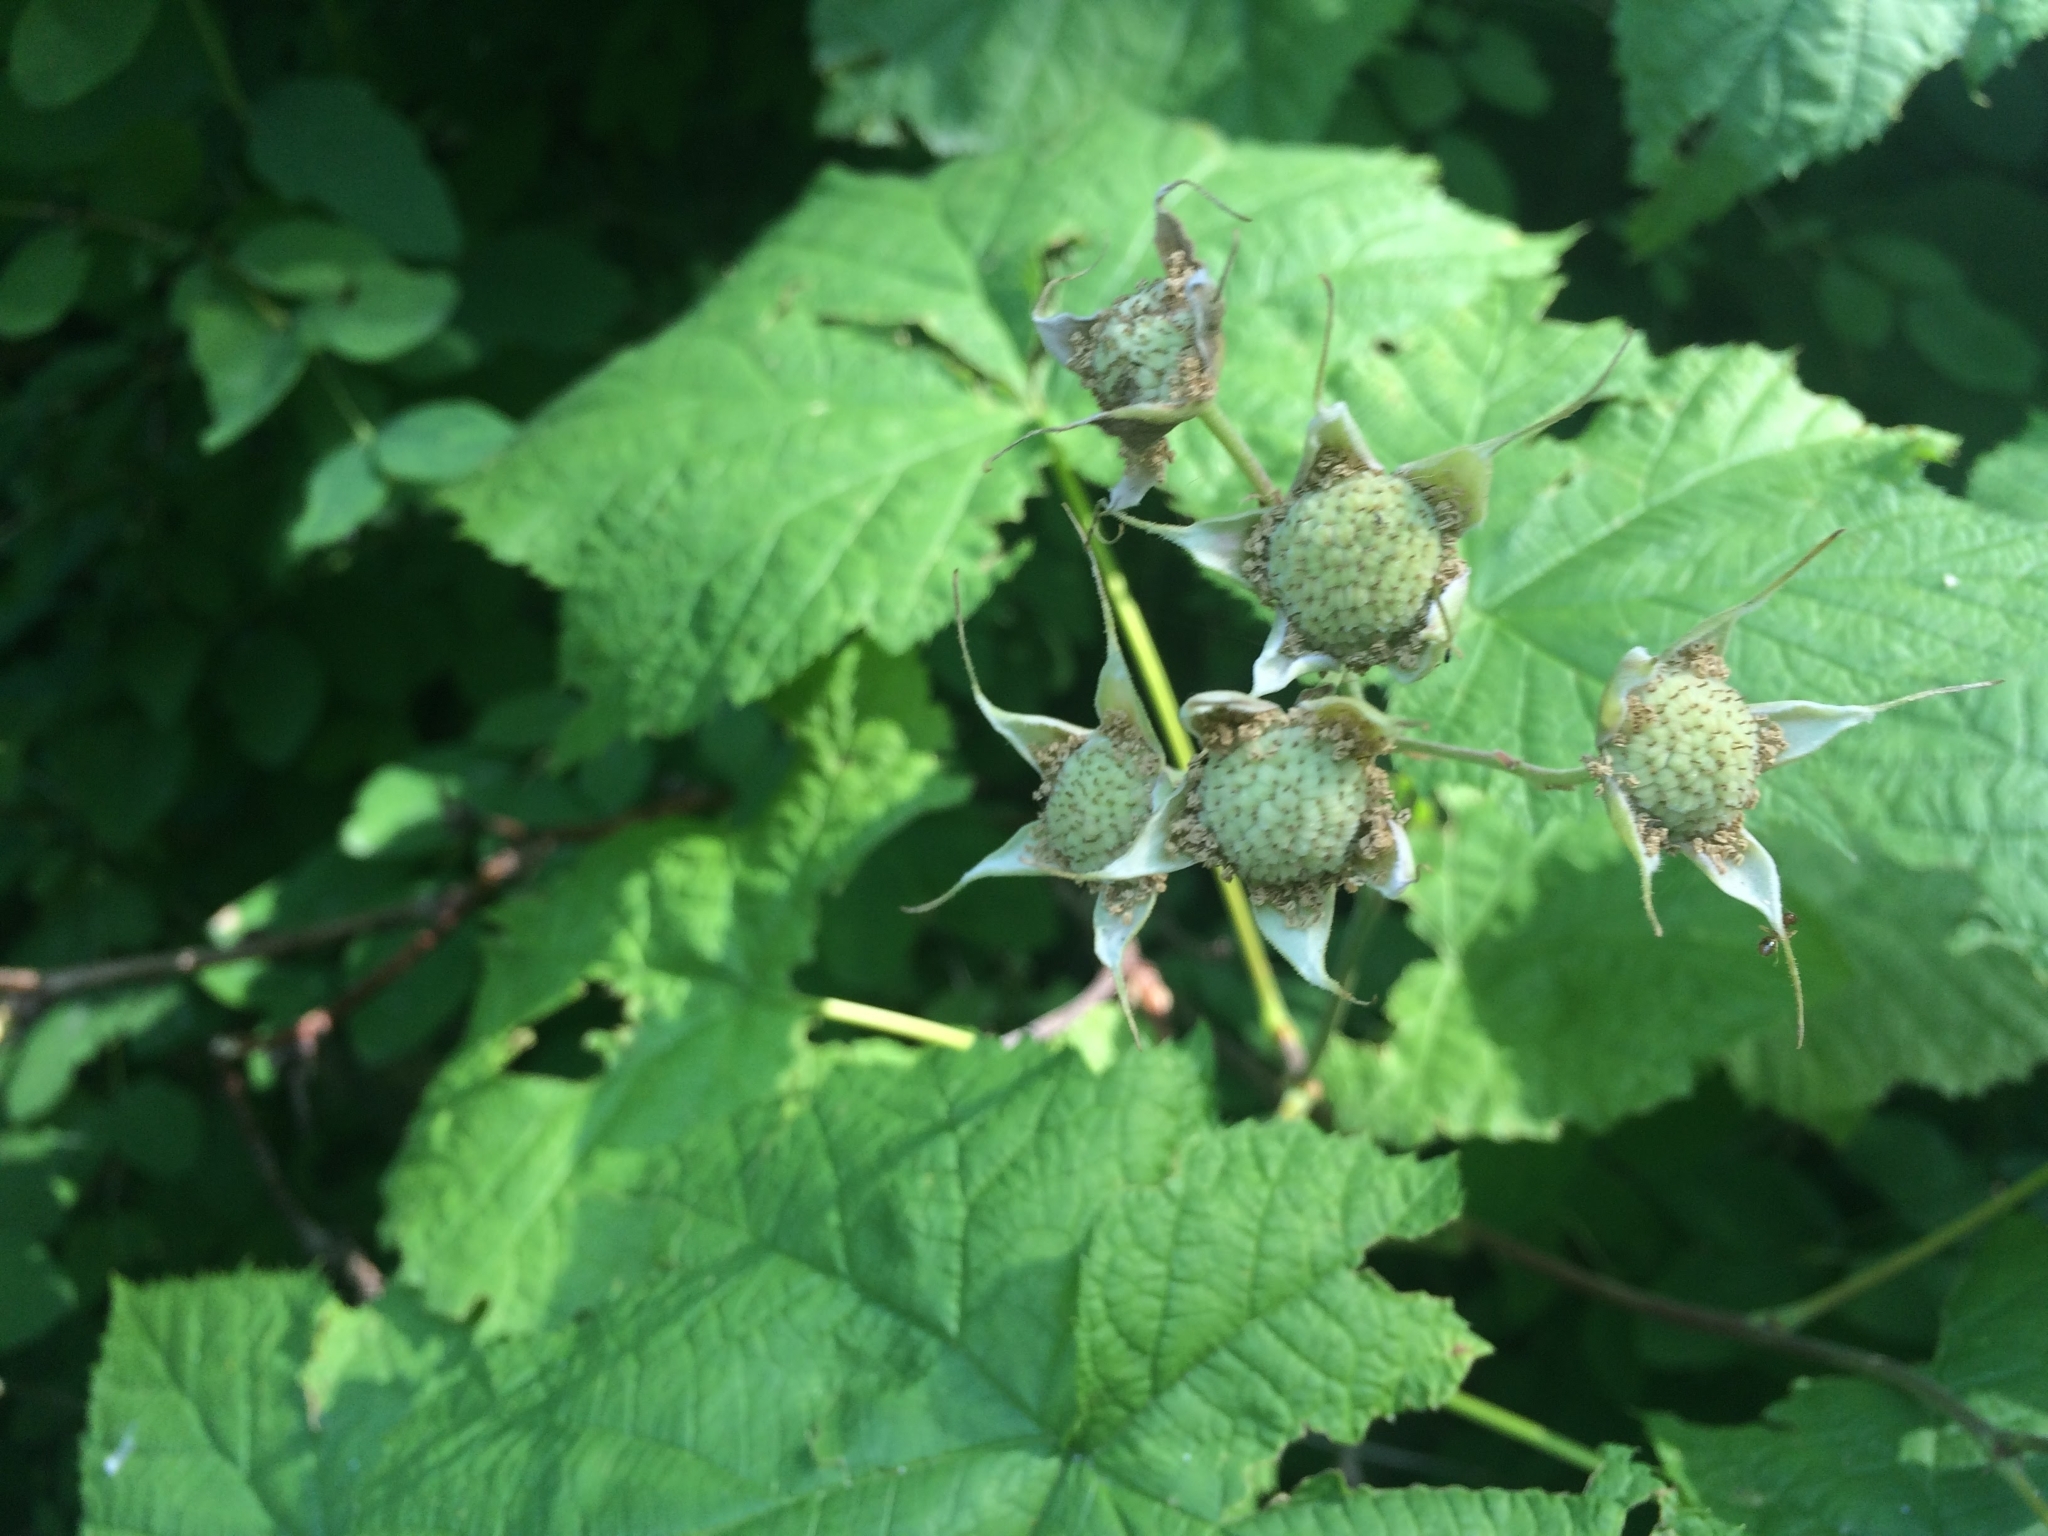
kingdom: Plantae
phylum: Tracheophyta
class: Magnoliopsida
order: Rosales
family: Rosaceae
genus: Rubus
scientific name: Rubus parviflorus
